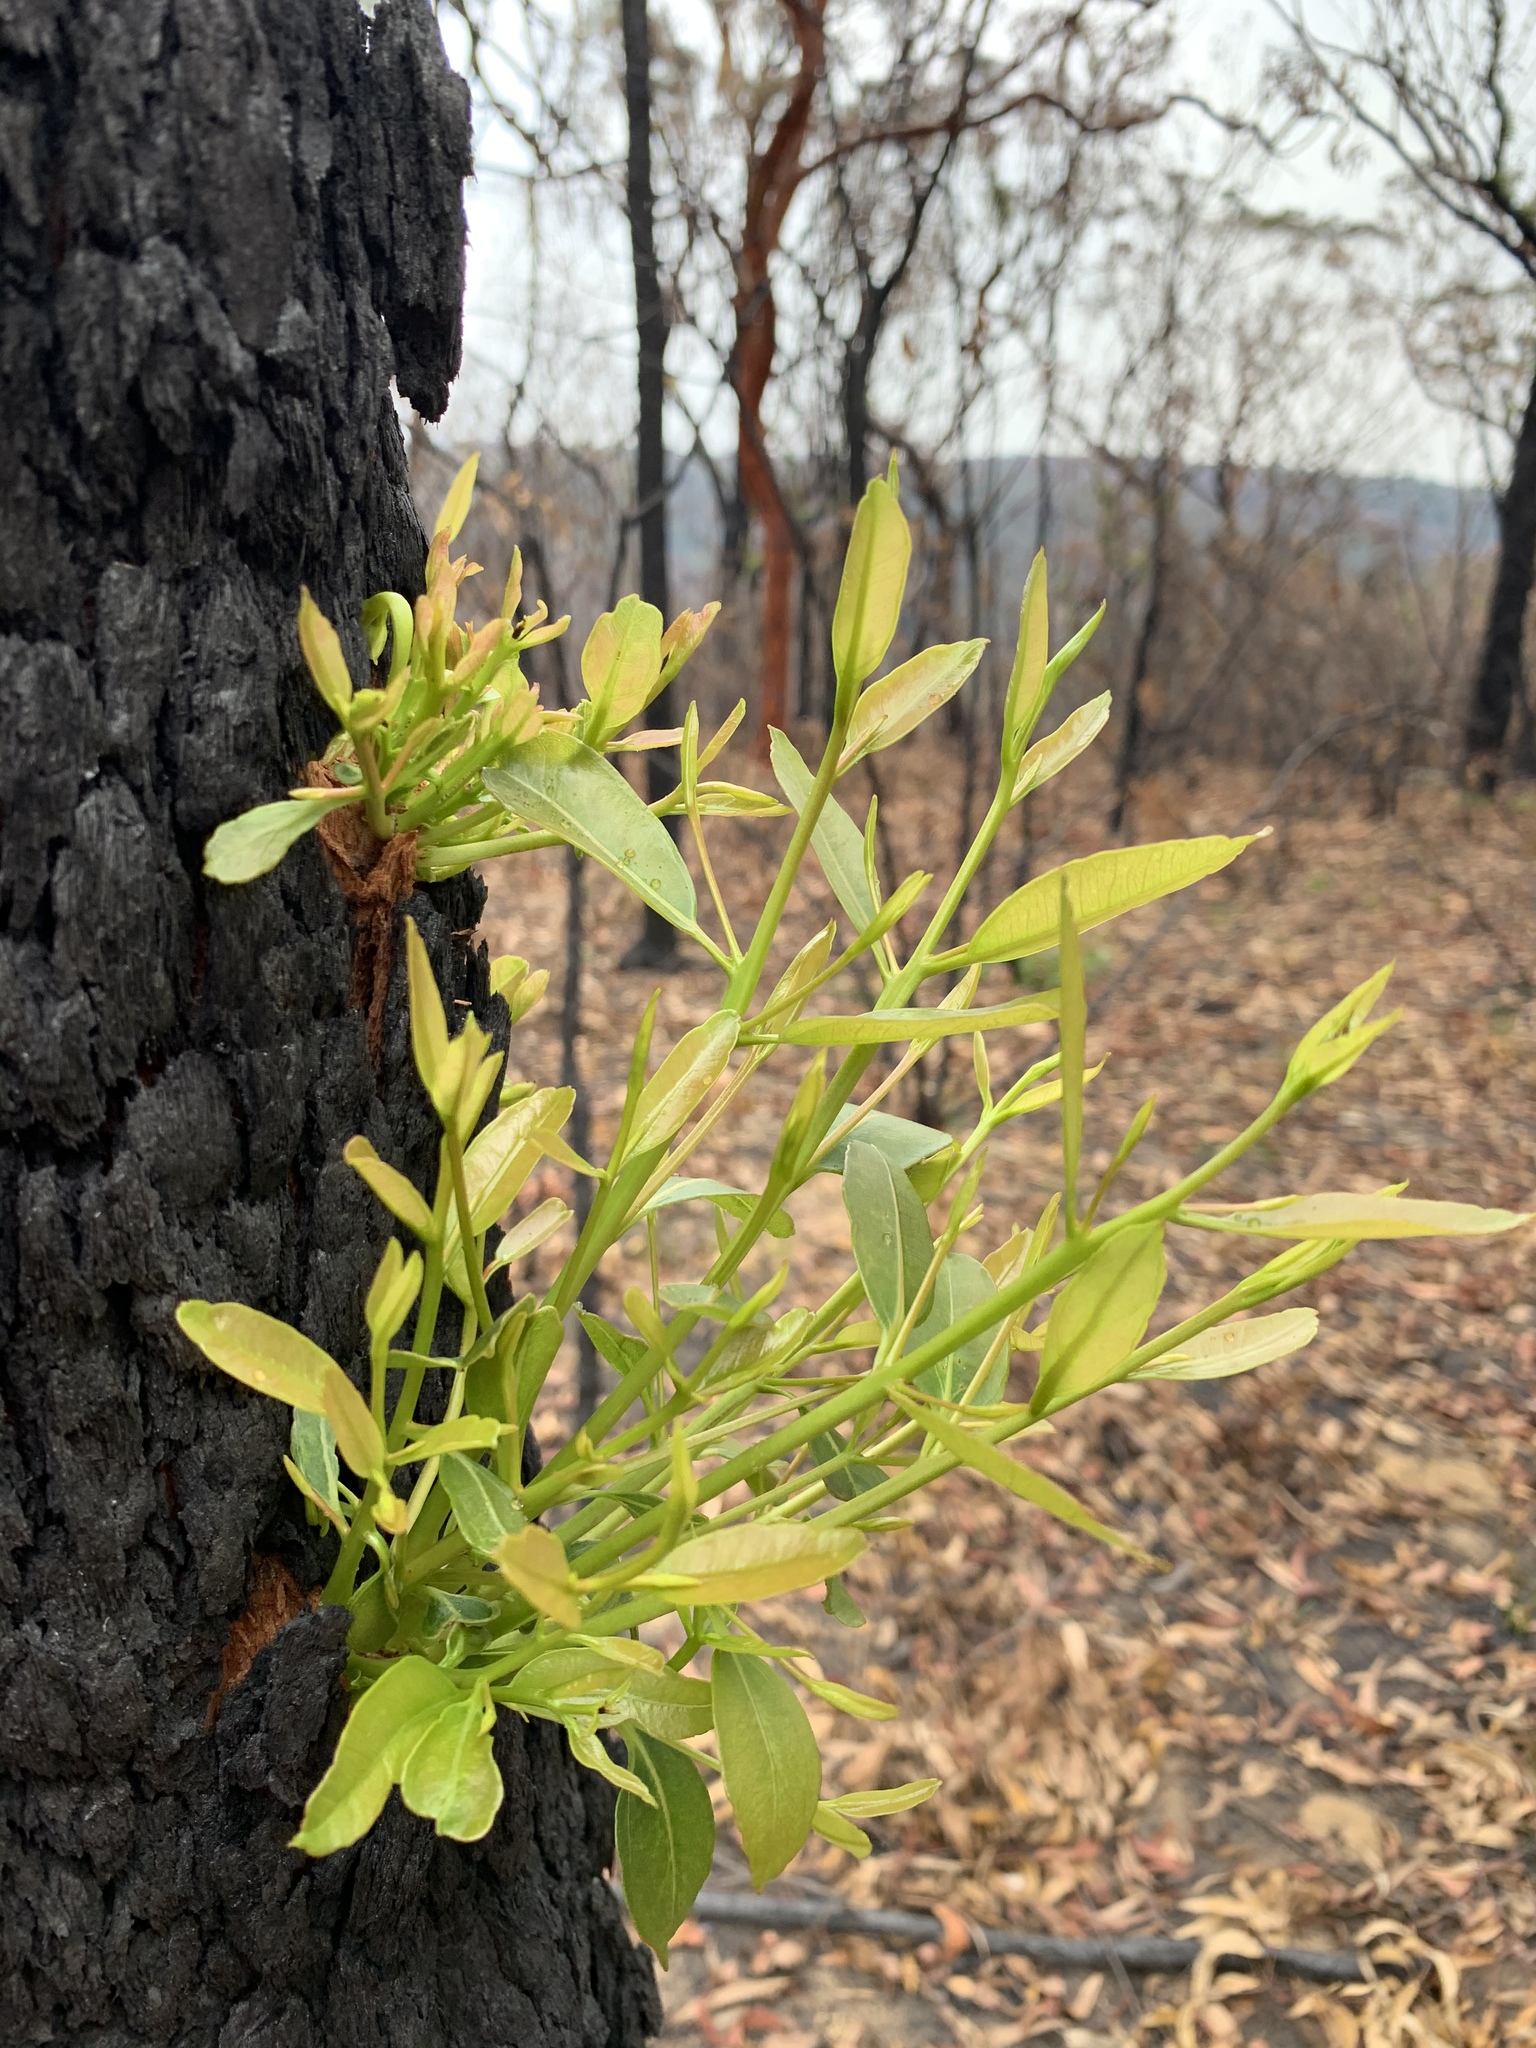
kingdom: Plantae
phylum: Tracheophyta
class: Magnoliopsida
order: Myrtales
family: Myrtaceae
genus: Corymbia
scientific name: Corymbia gummifera
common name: Red bloodwood
